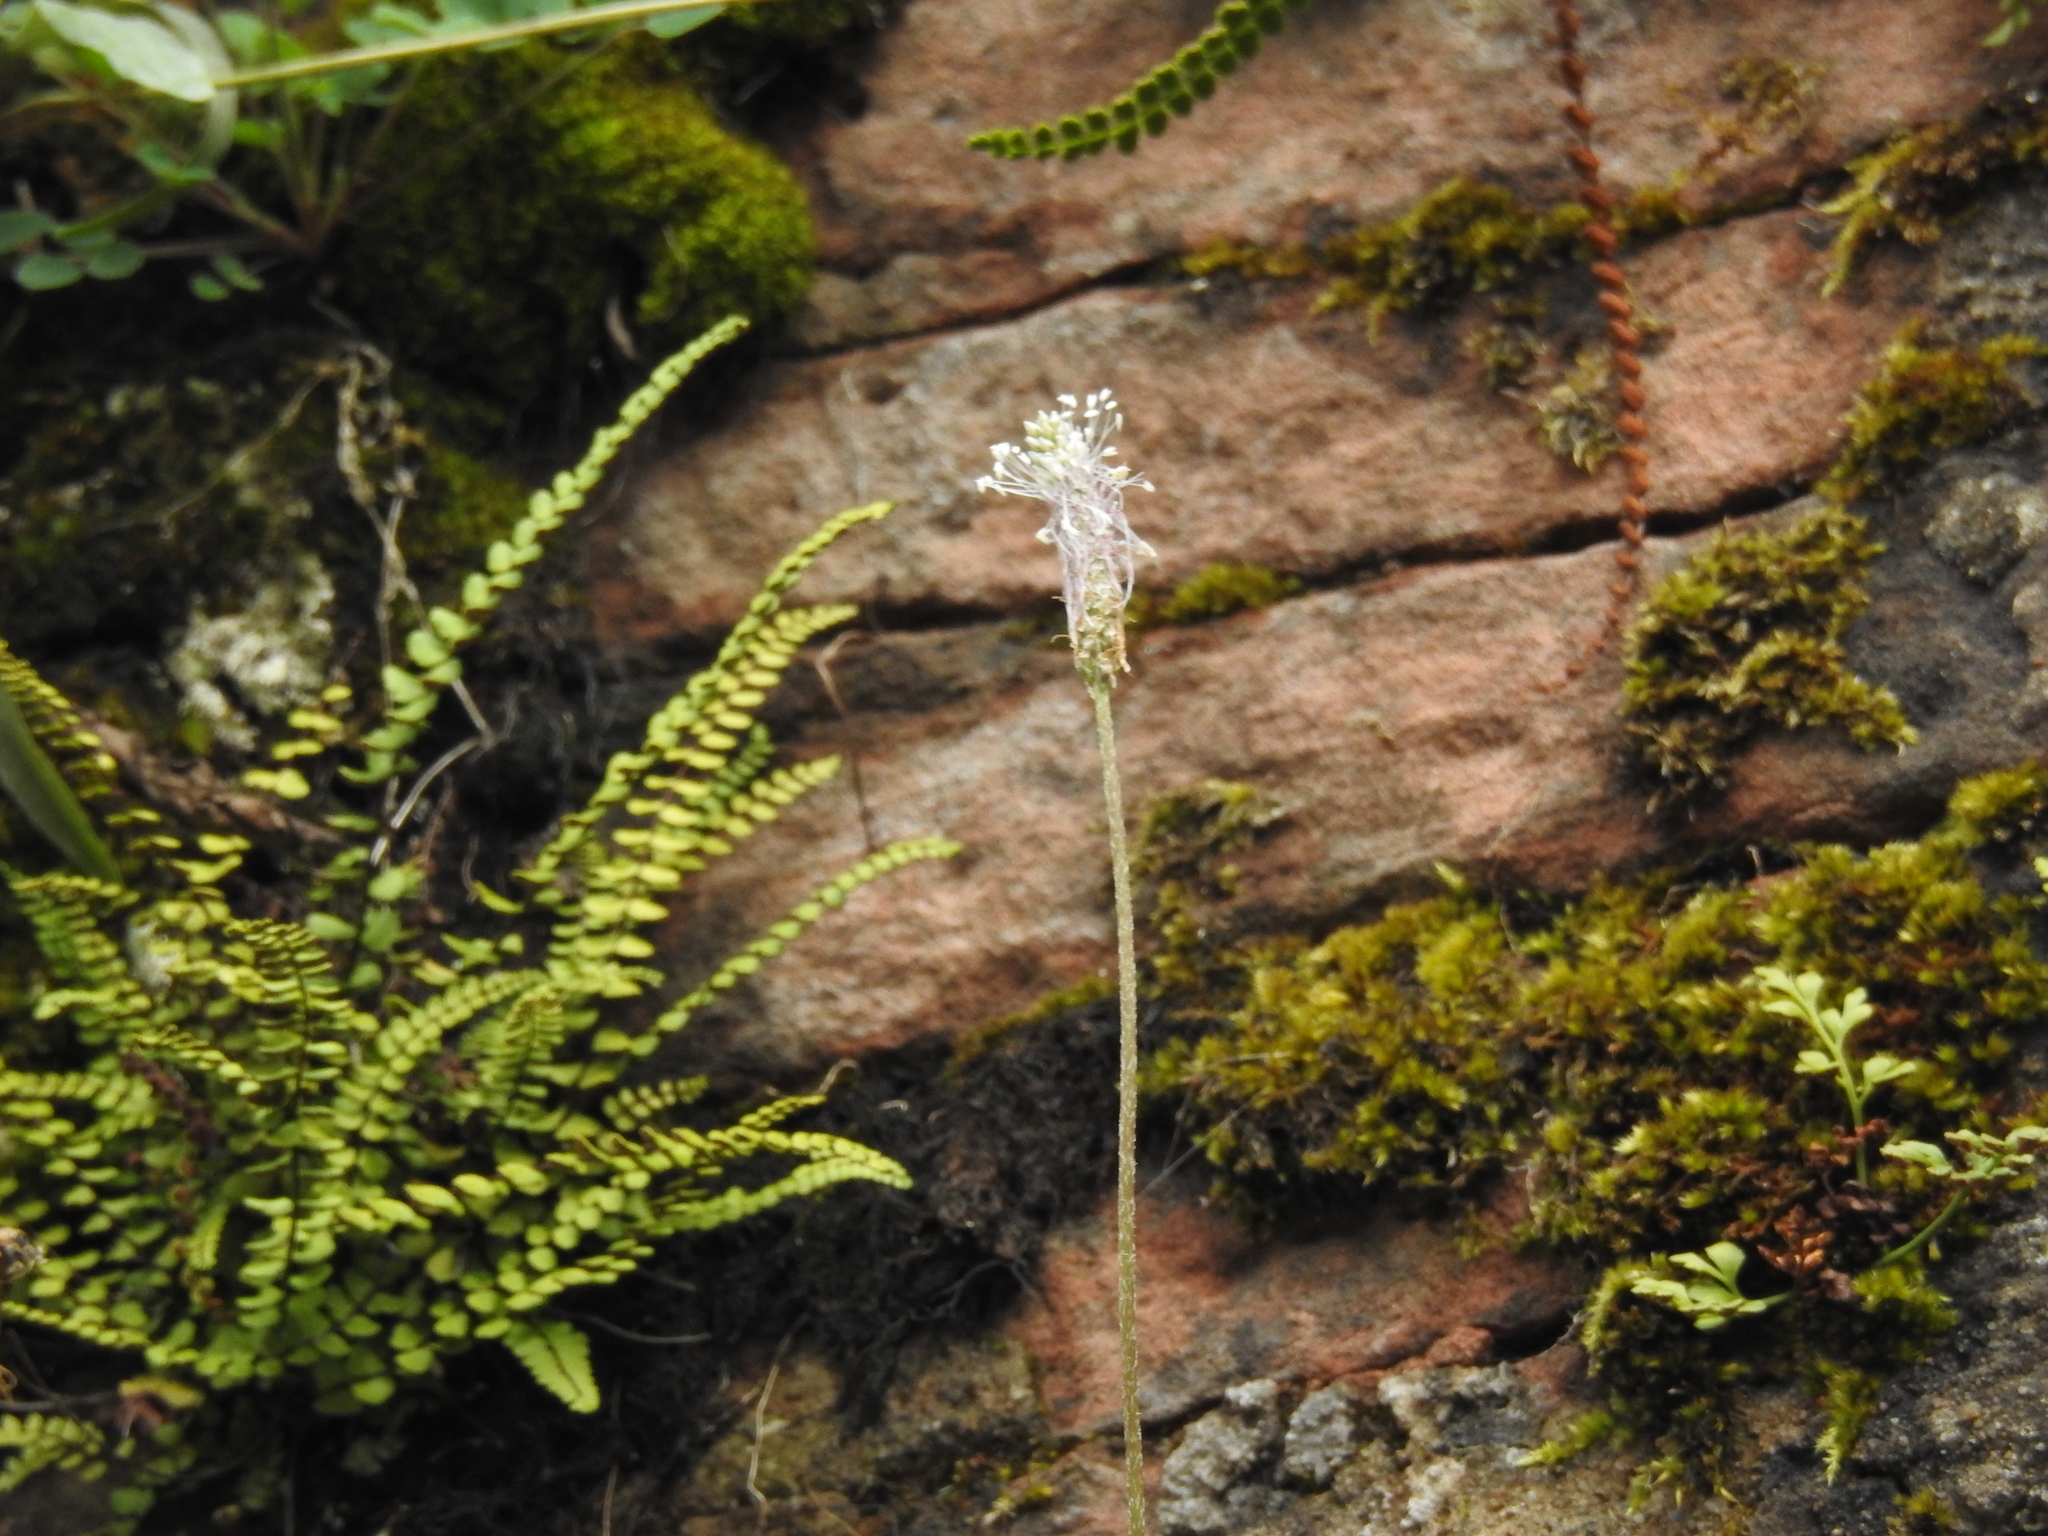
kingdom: Plantae
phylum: Tracheophyta
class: Magnoliopsida
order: Lamiales
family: Plantaginaceae
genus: Plantago
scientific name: Plantago media
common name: Hoary plantain
